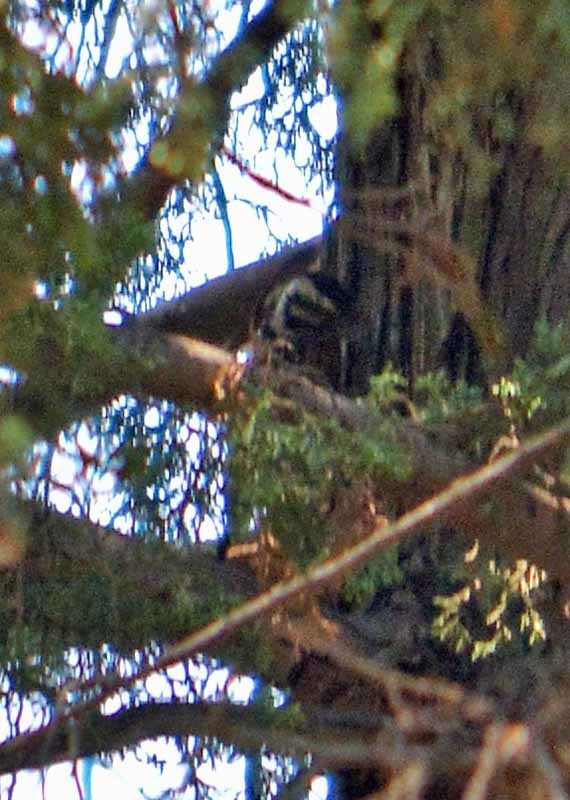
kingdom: Animalia
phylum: Chordata
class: Aves
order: Piciformes
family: Picidae
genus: Dryobates
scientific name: Dryobates scalaris
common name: Ladder-backed woodpecker
